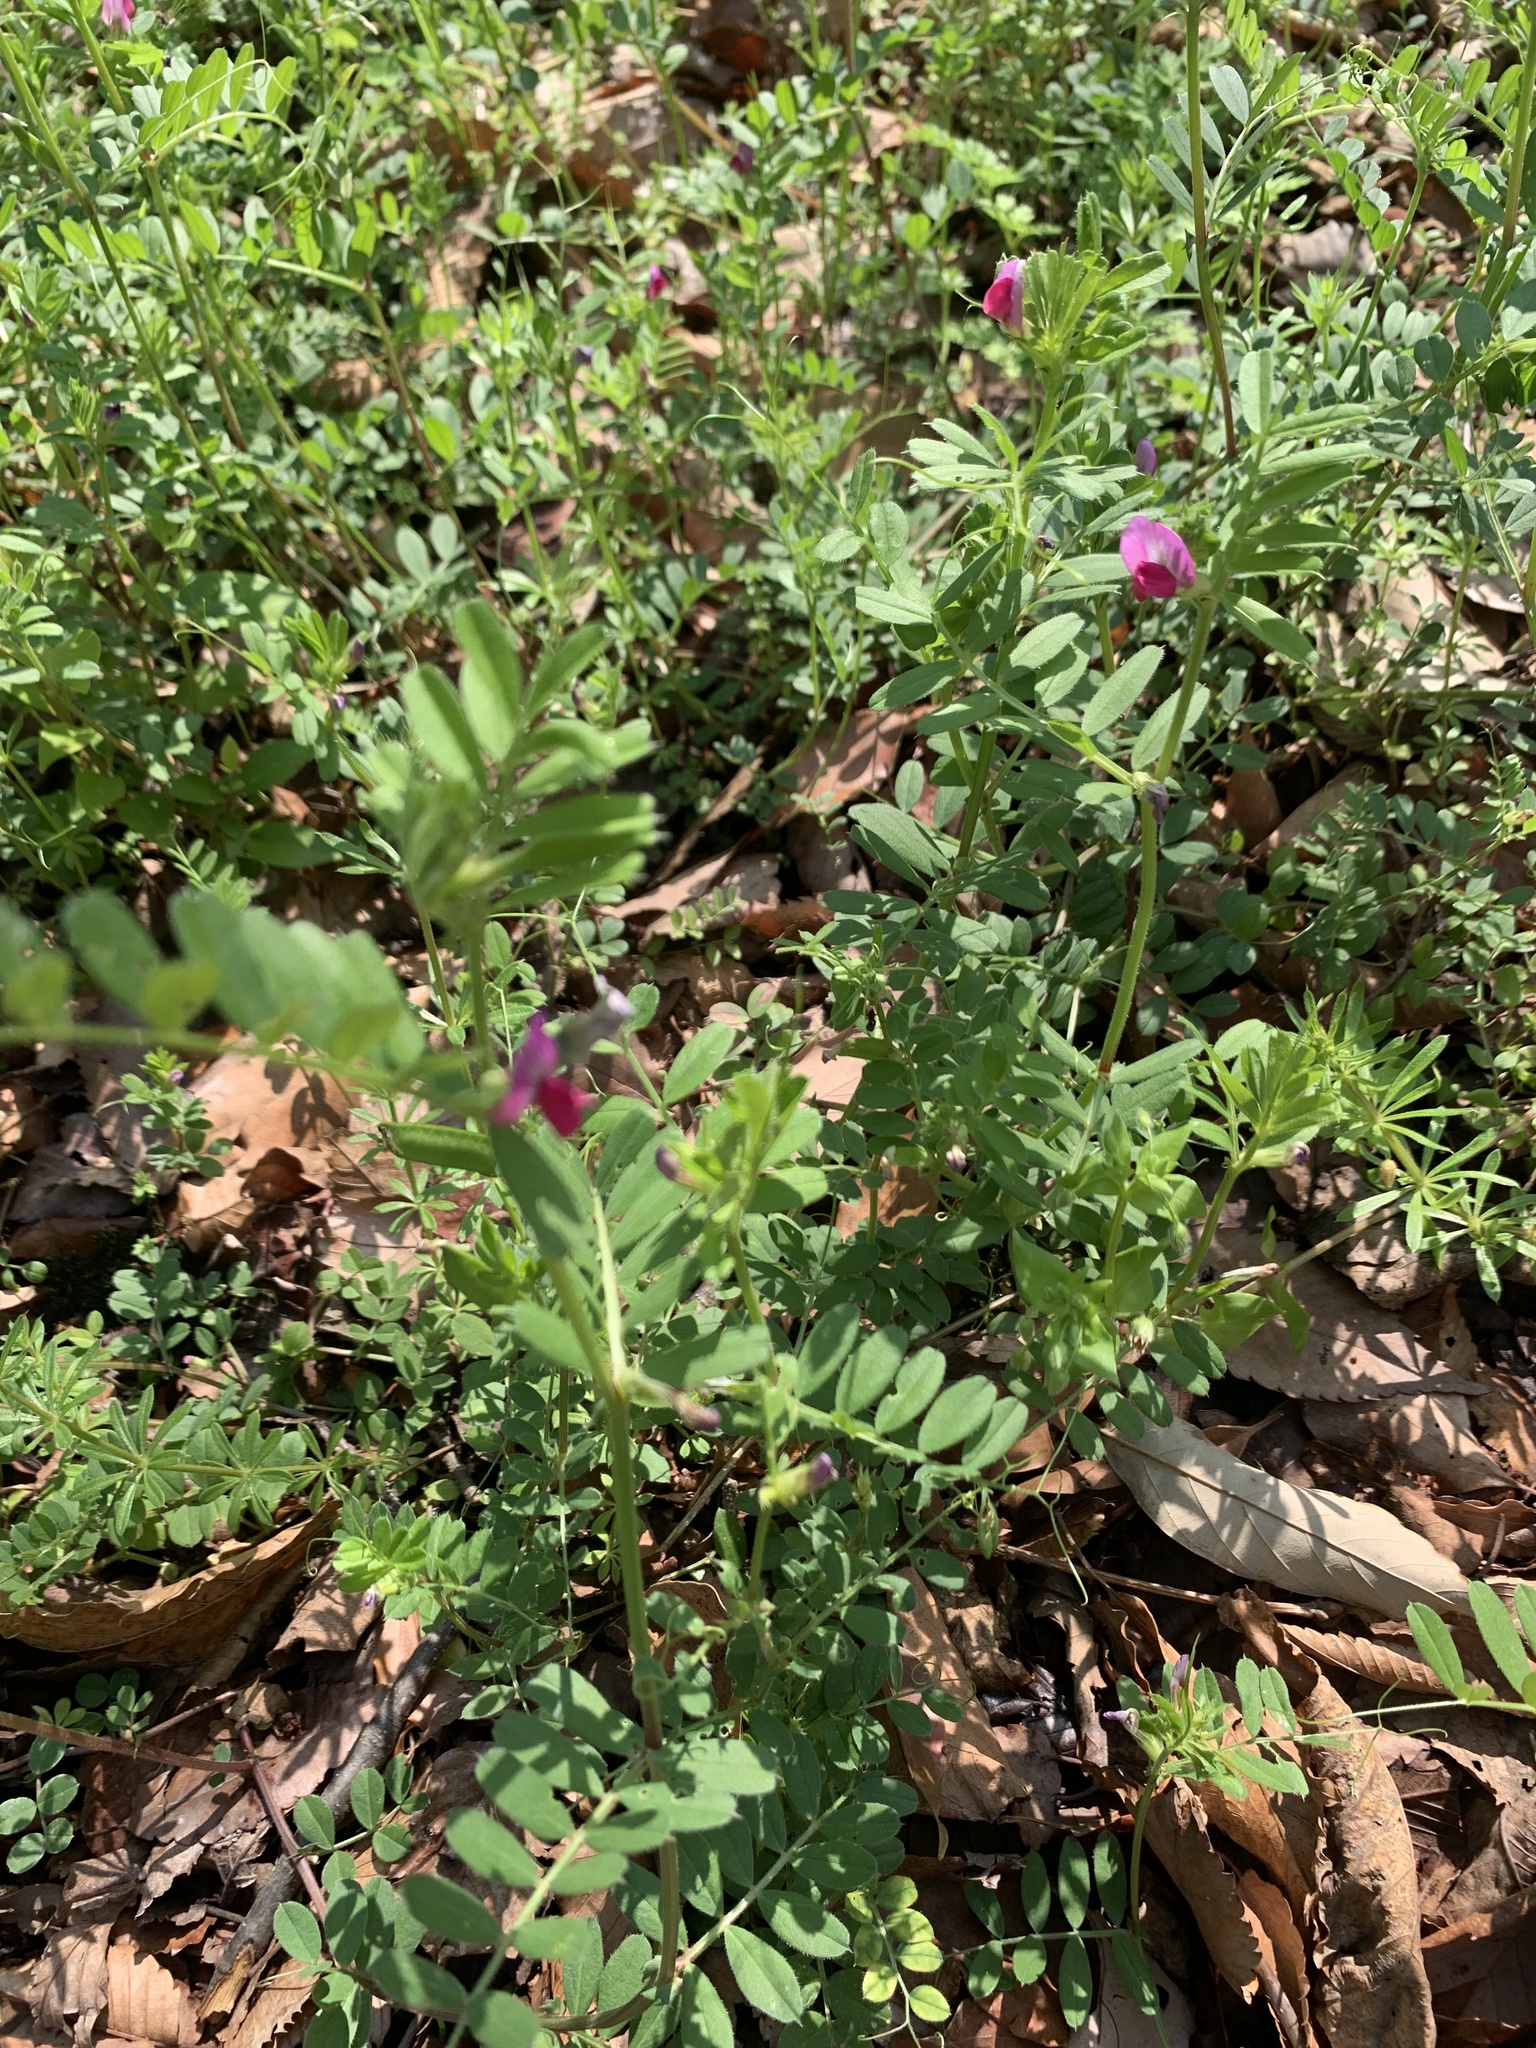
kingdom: Plantae
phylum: Tracheophyta
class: Magnoliopsida
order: Fabales
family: Fabaceae
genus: Vicia
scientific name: Vicia sativa
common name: Garden vetch
